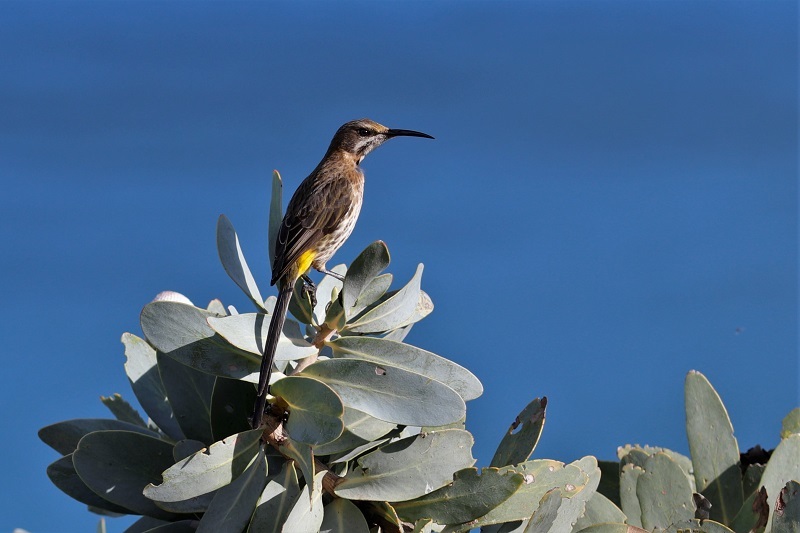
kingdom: Animalia
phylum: Chordata
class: Aves
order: Passeriformes
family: Promeropidae
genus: Promerops
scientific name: Promerops cafer
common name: Cape sugarbird
